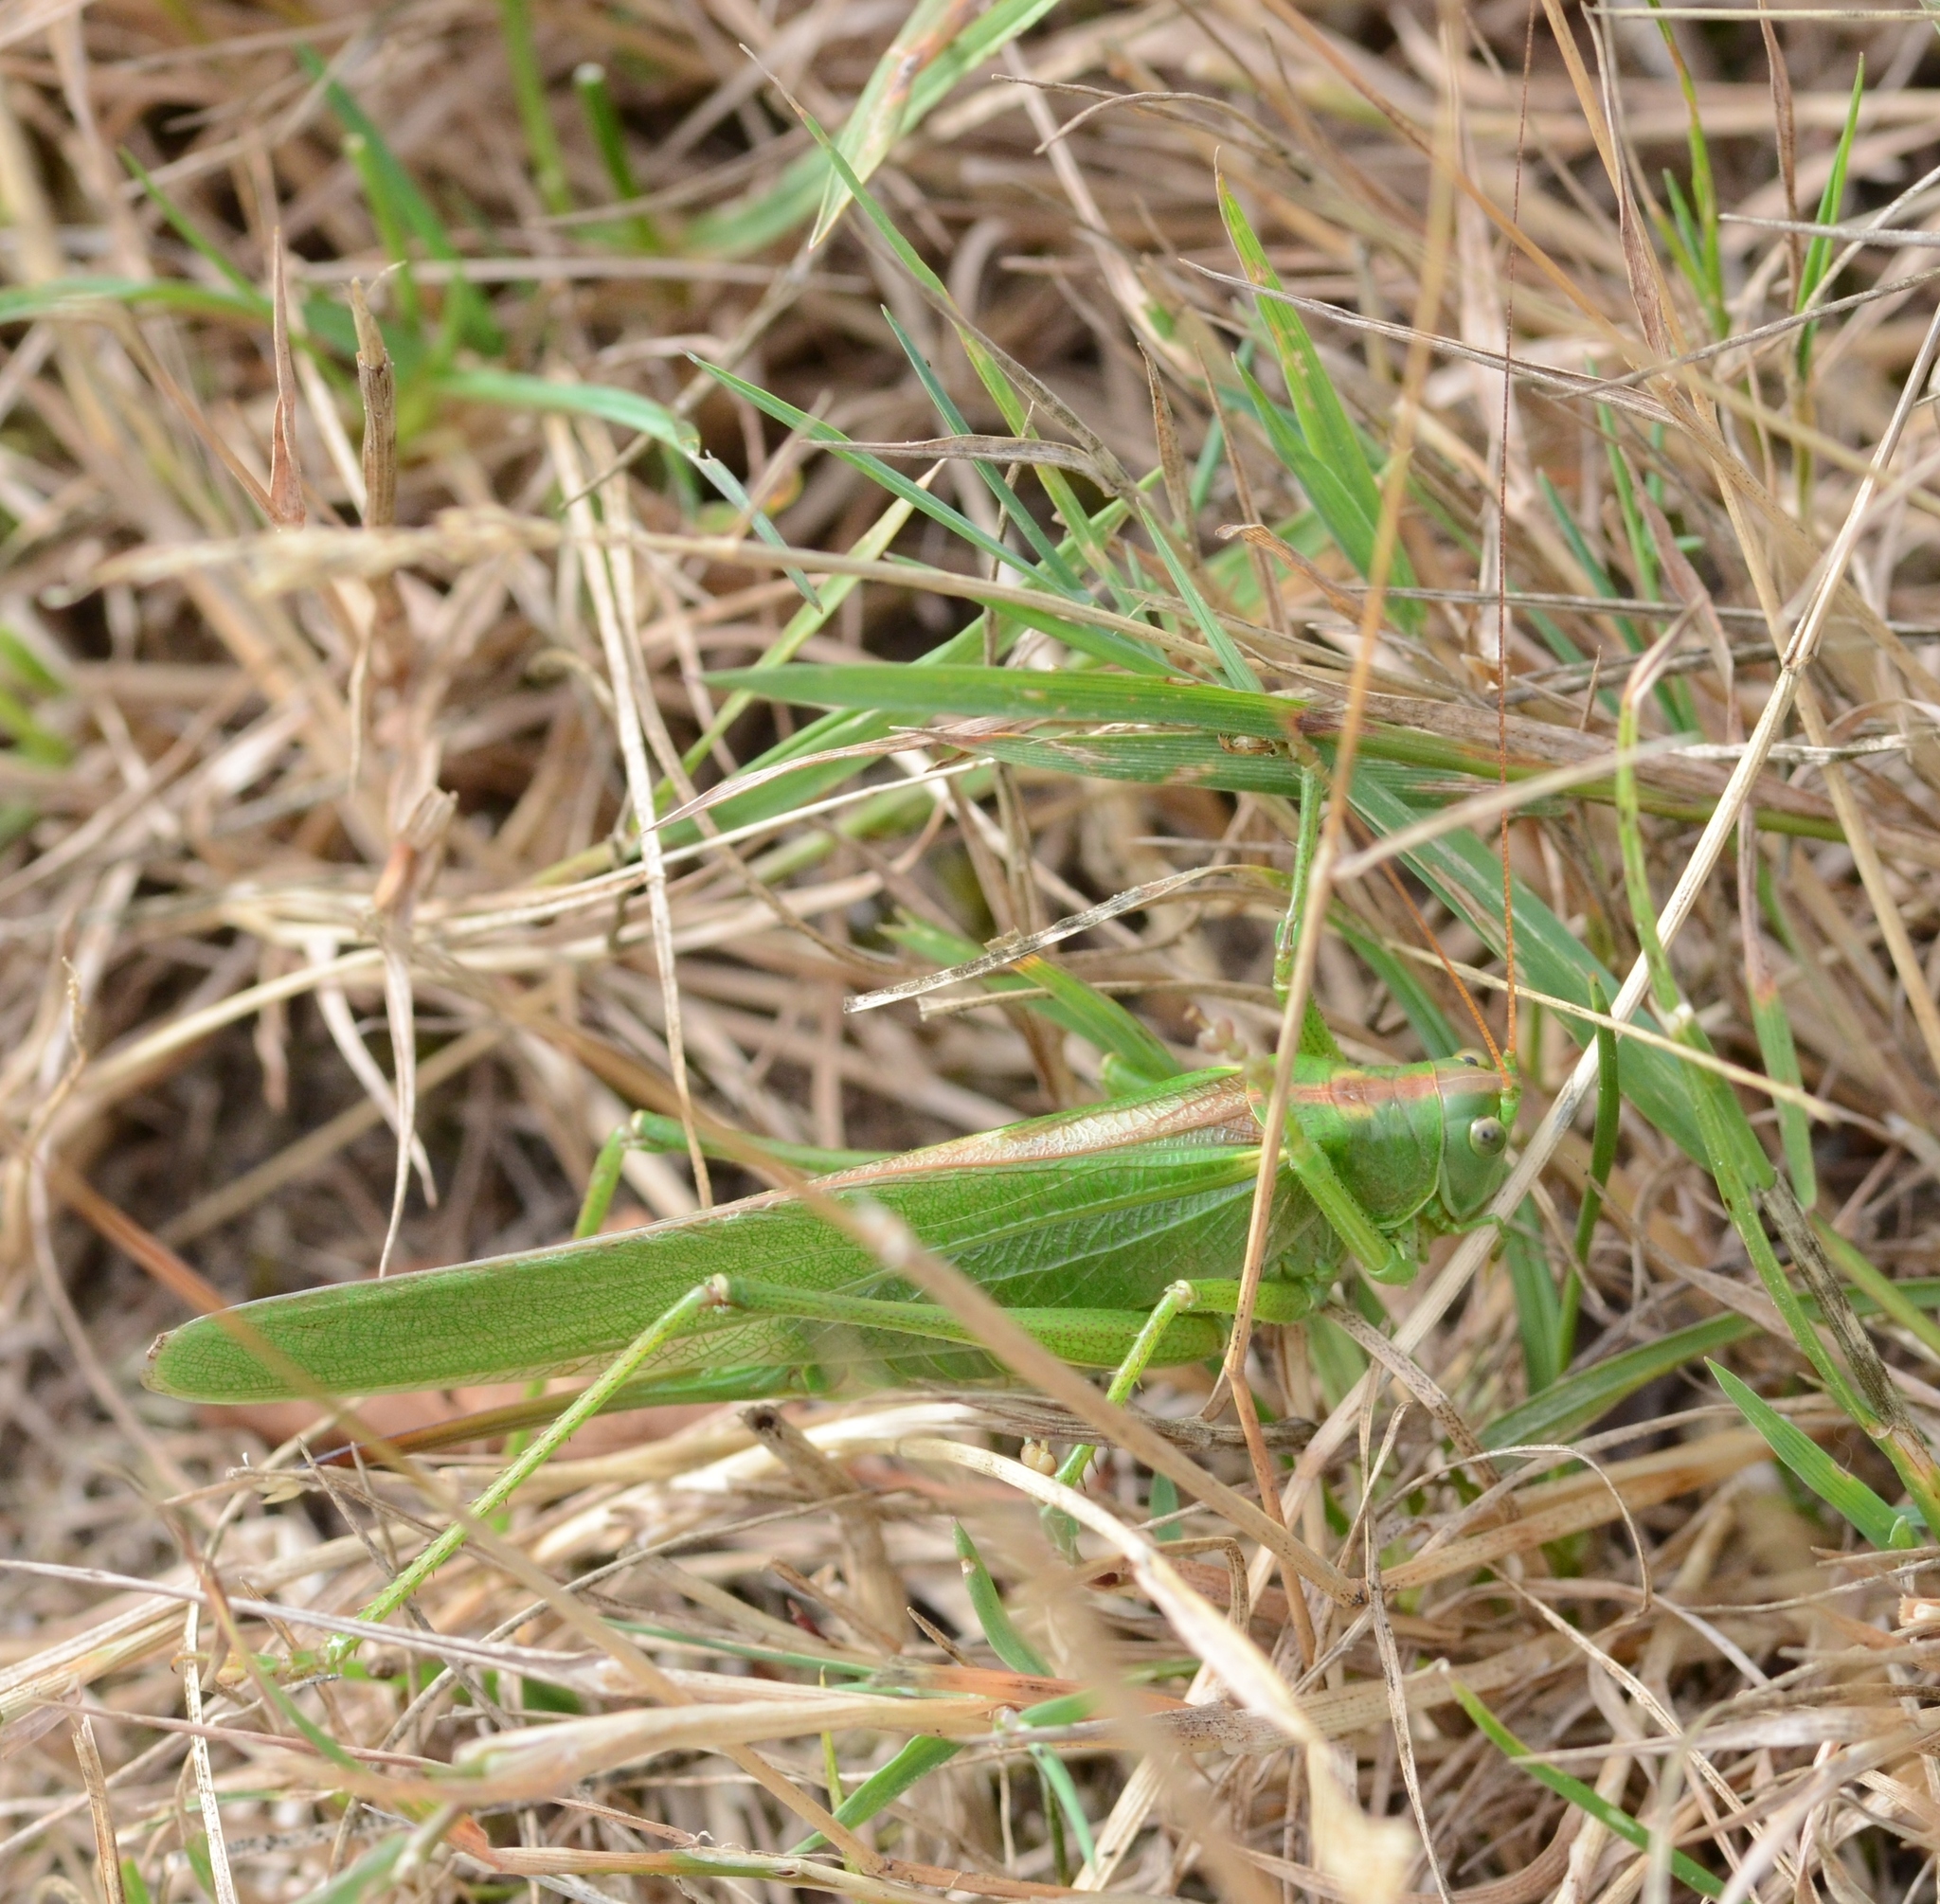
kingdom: Animalia
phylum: Arthropoda
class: Insecta
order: Orthoptera
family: Tettigoniidae
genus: Tettigonia
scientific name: Tettigonia viridissima
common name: Great green bush-cricket
